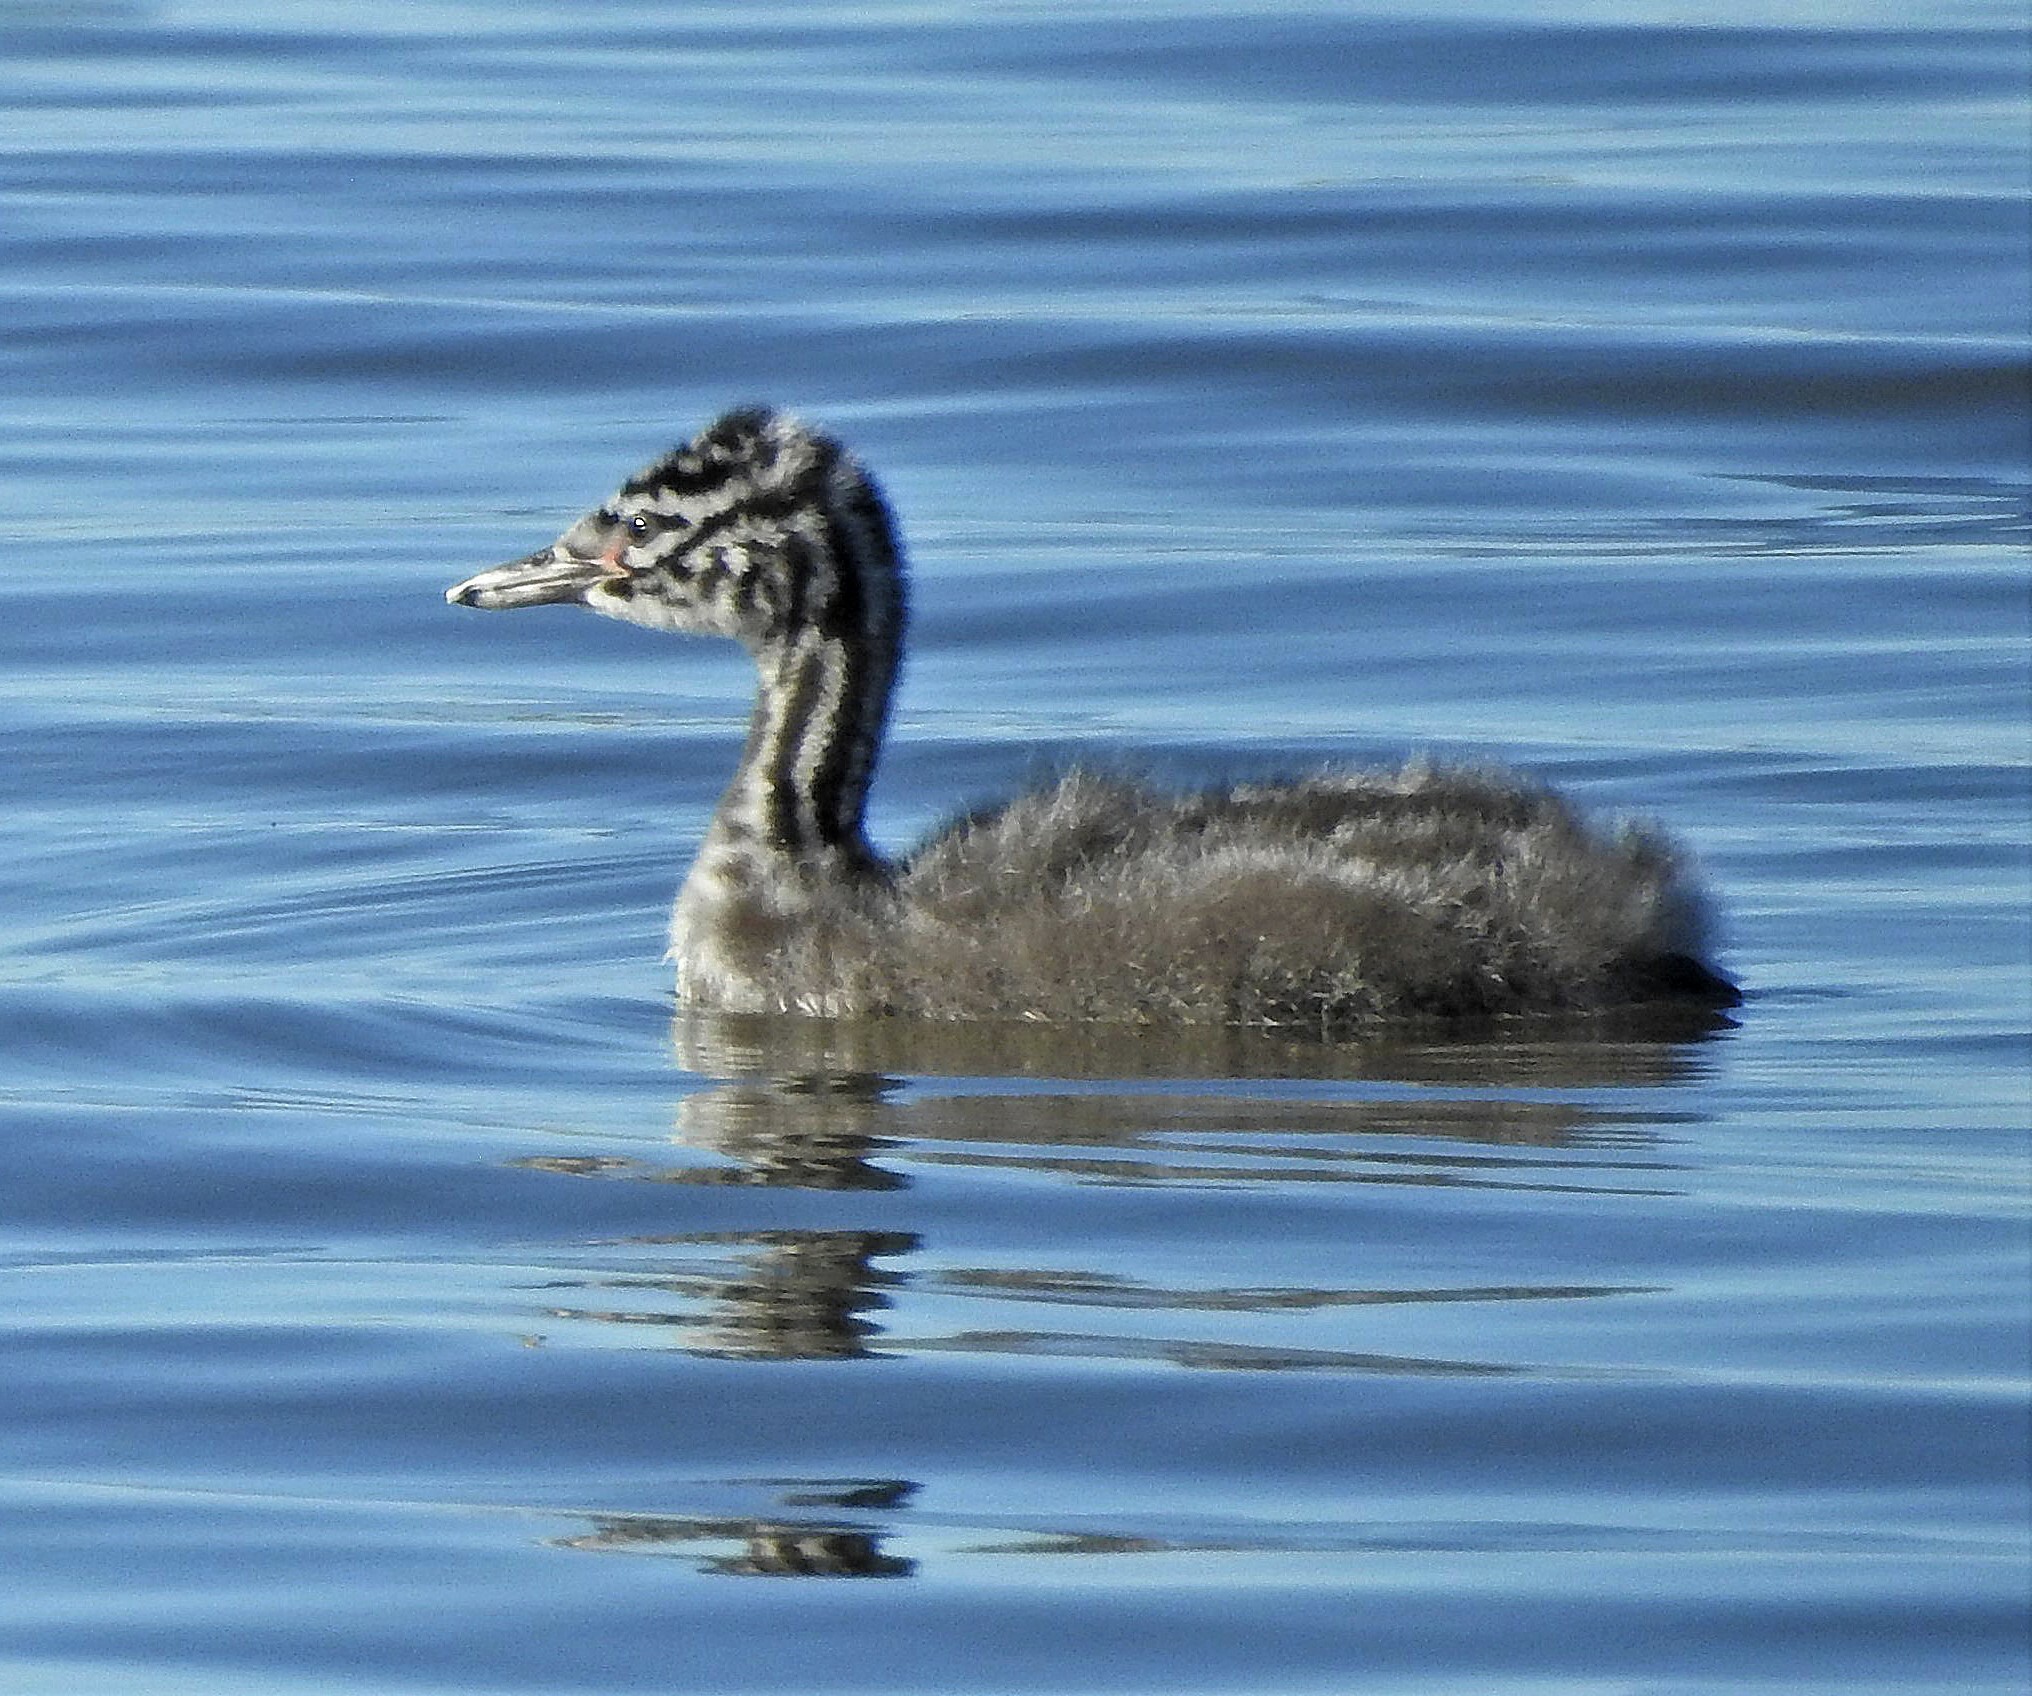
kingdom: Animalia
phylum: Chordata
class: Aves
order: Podicipediformes
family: Podicipedidae
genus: Podiceps
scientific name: Podiceps major
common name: Great grebe
